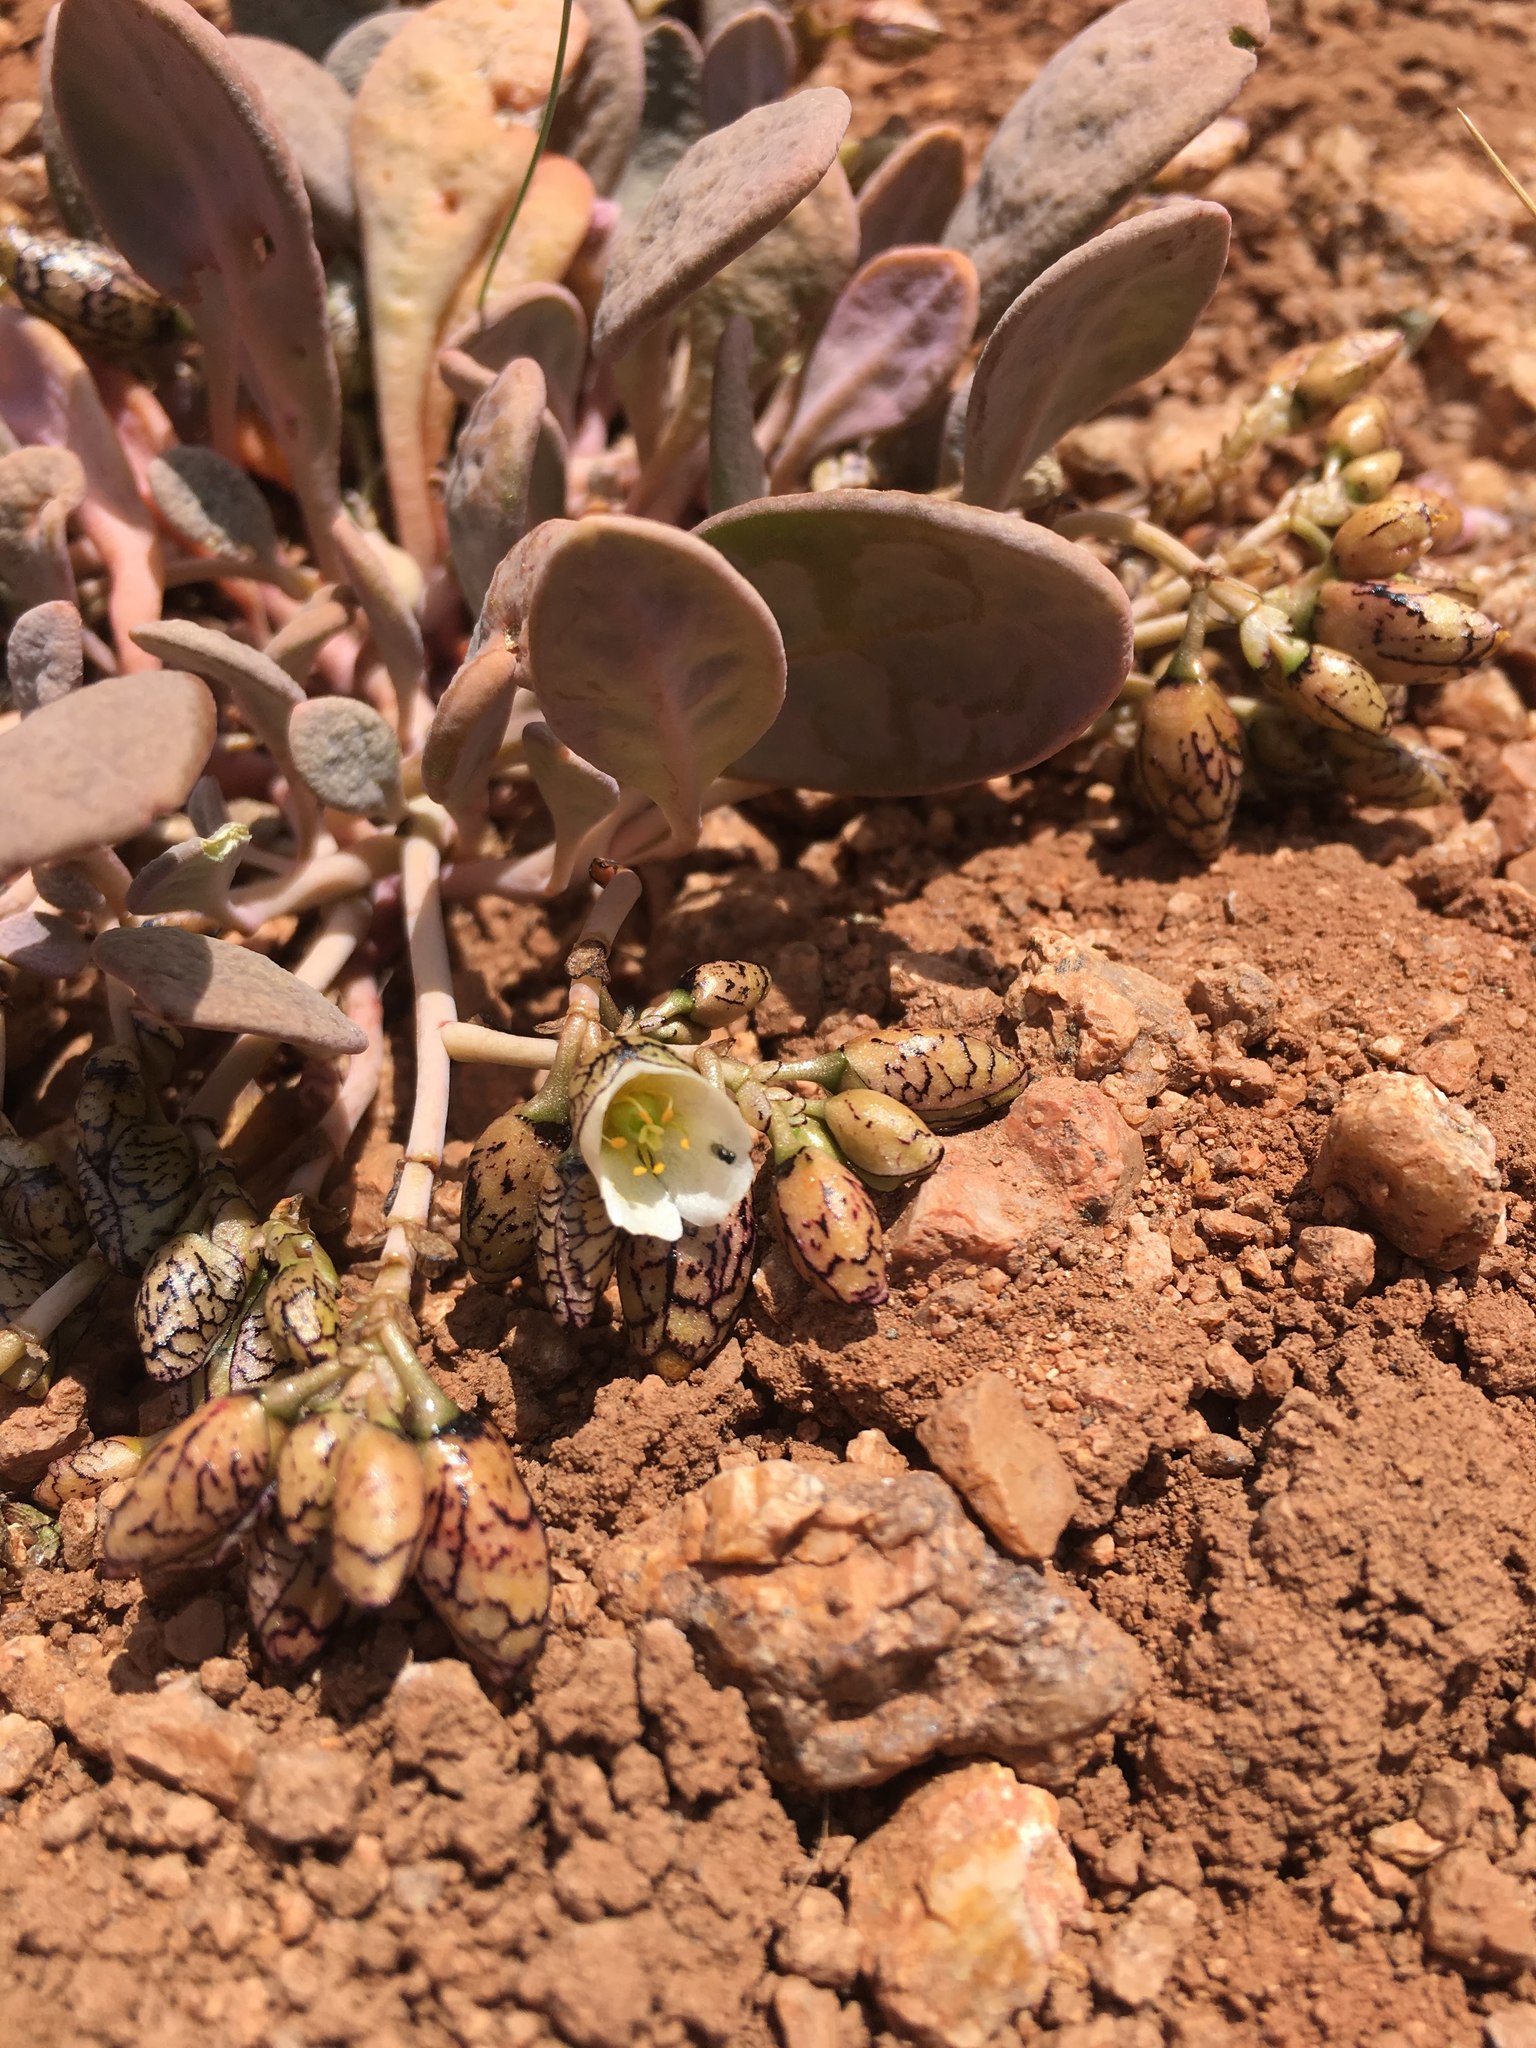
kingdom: Plantae
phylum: Tracheophyta
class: Magnoliopsida
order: Caryophyllales
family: Montiaceae
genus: Cistanthe
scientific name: Cistanthe frigida
